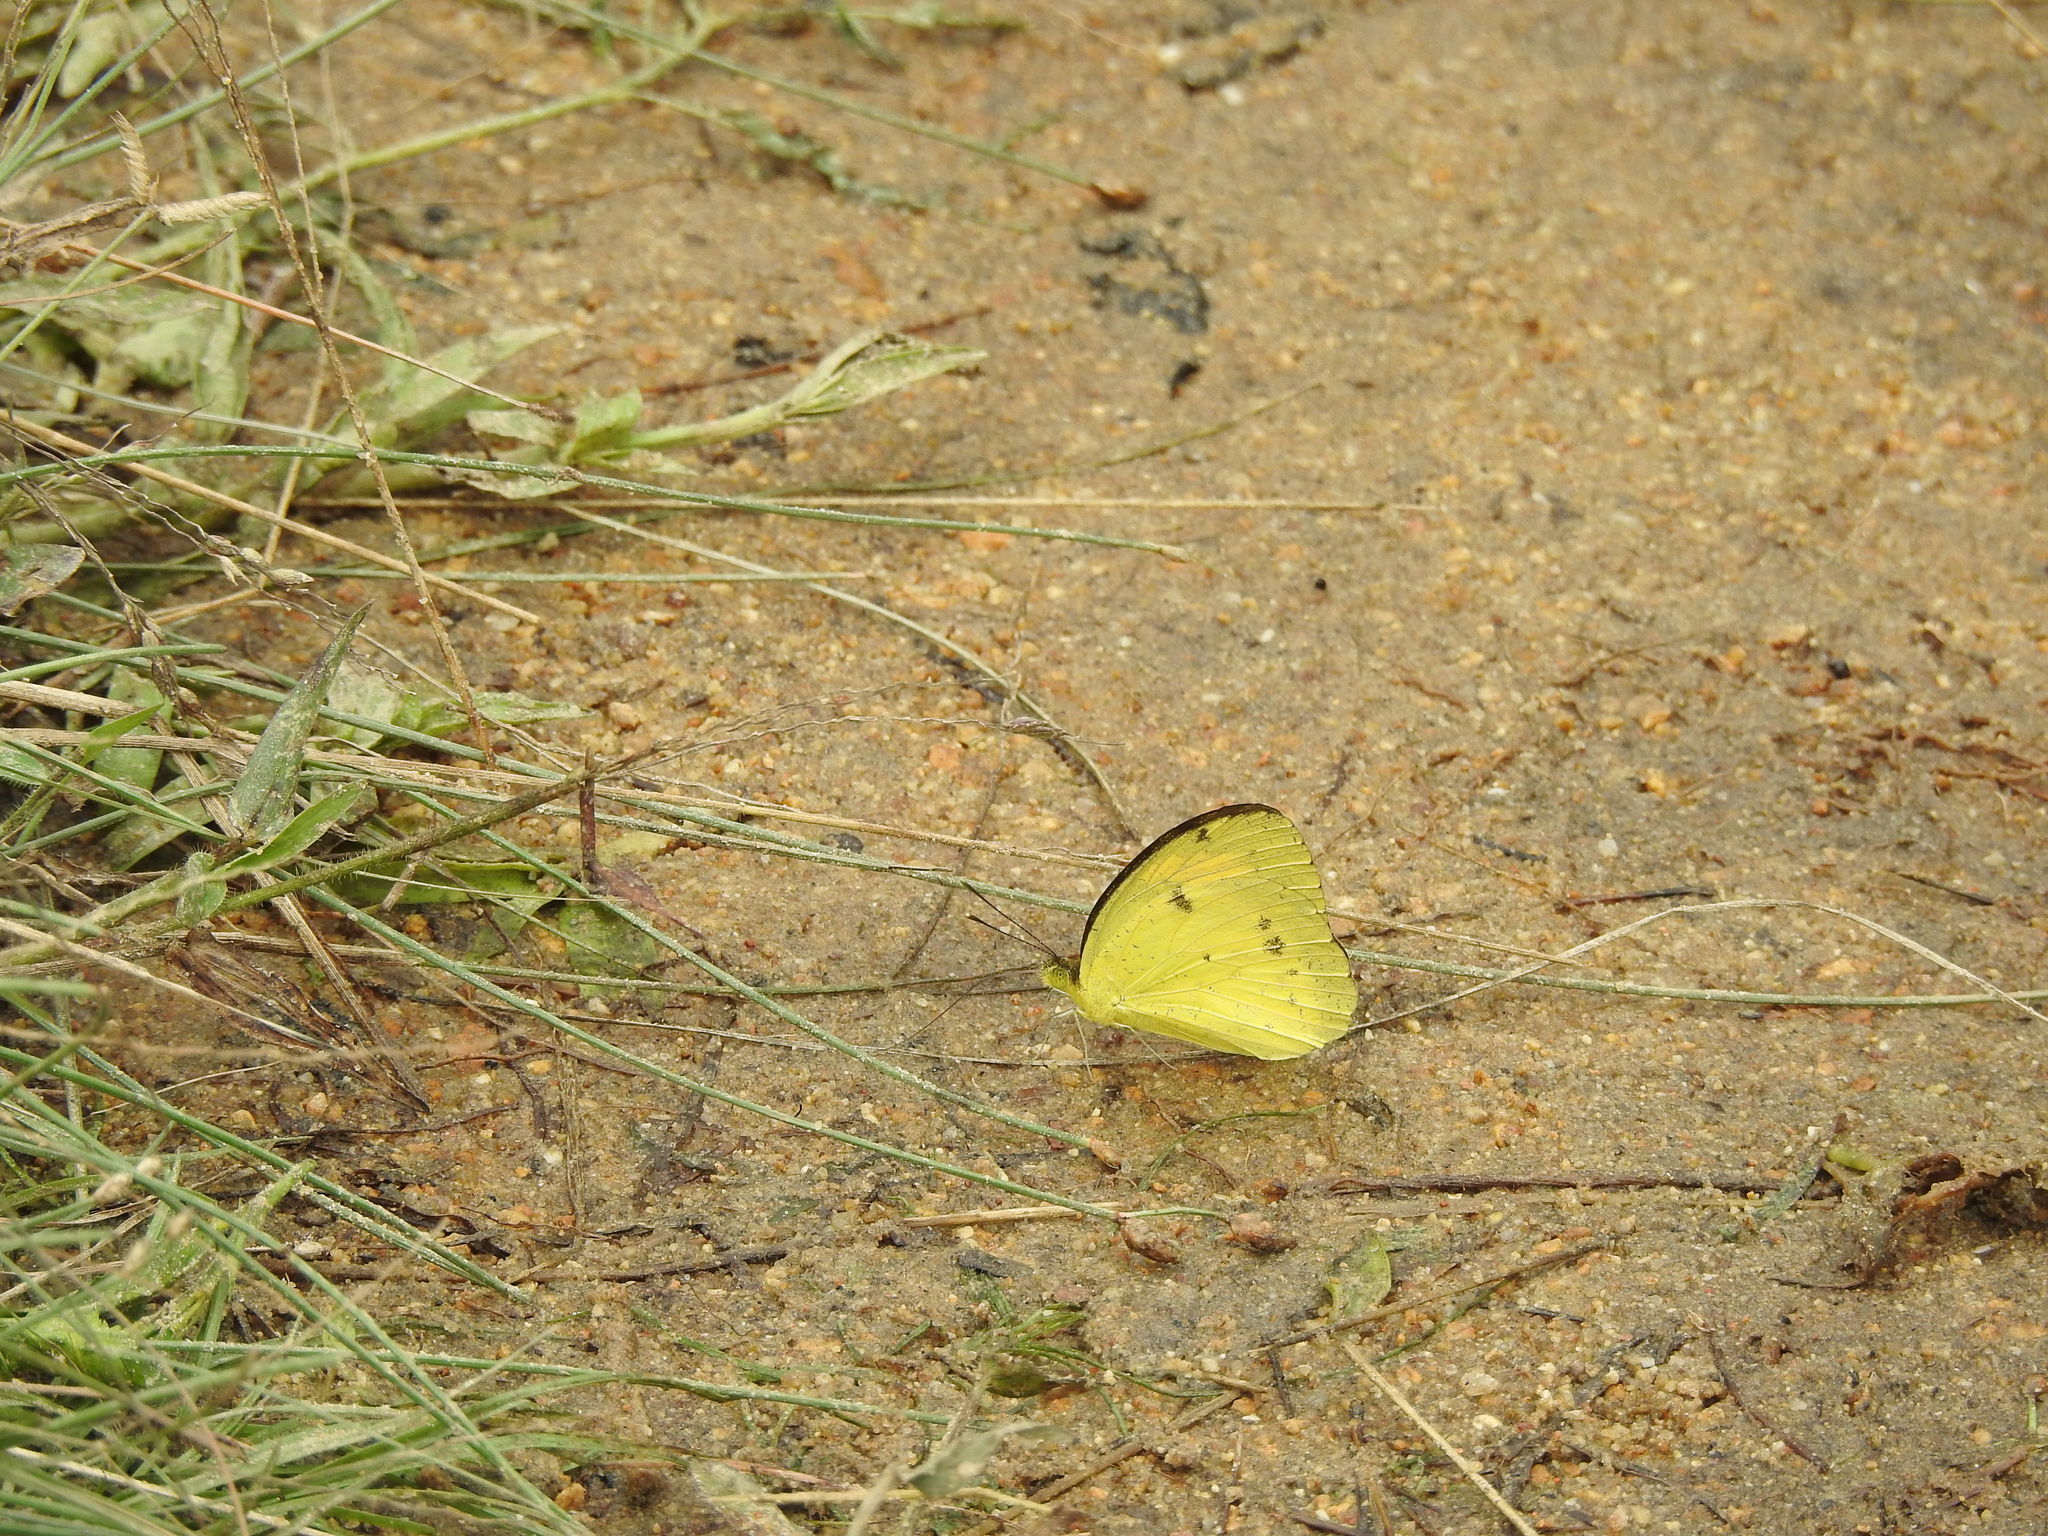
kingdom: Animalia
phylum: Arthropoda
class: Insecta
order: Lepidoptera
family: Pieridae
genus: Ixias
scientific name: Ixias pyrene
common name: Yellow orange tip
